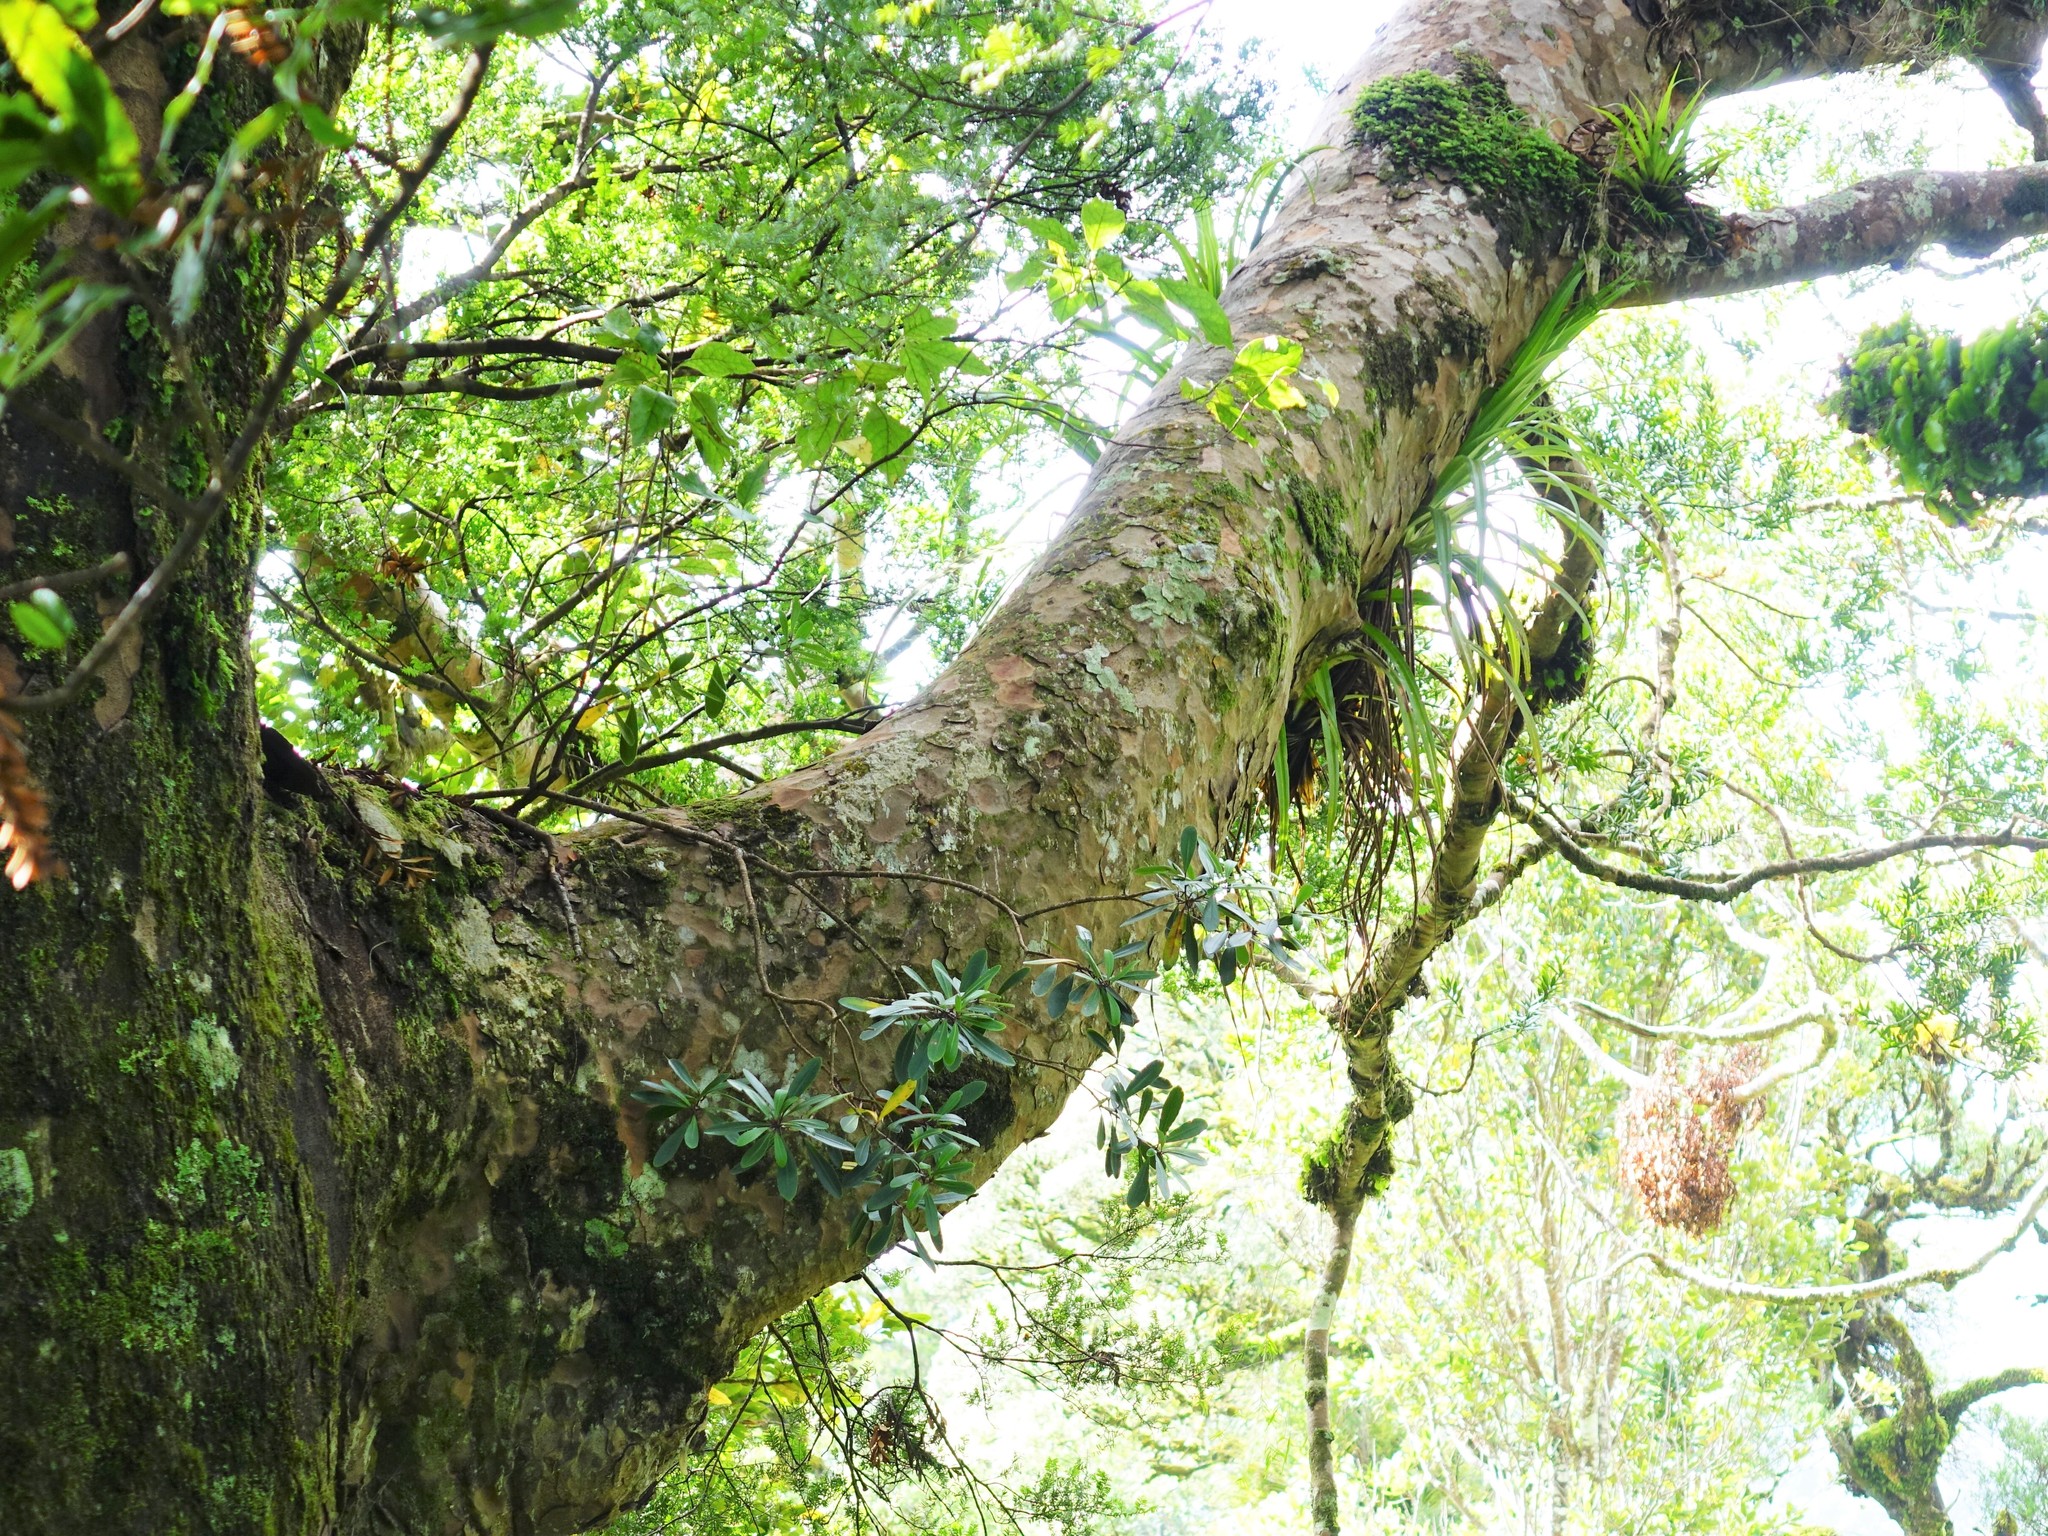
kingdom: Plantae
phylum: Tracheophyta
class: Magnoliopsida
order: Apiales
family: Pittosporaceae
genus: Pittosporum
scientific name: Pittosporum kirkii
